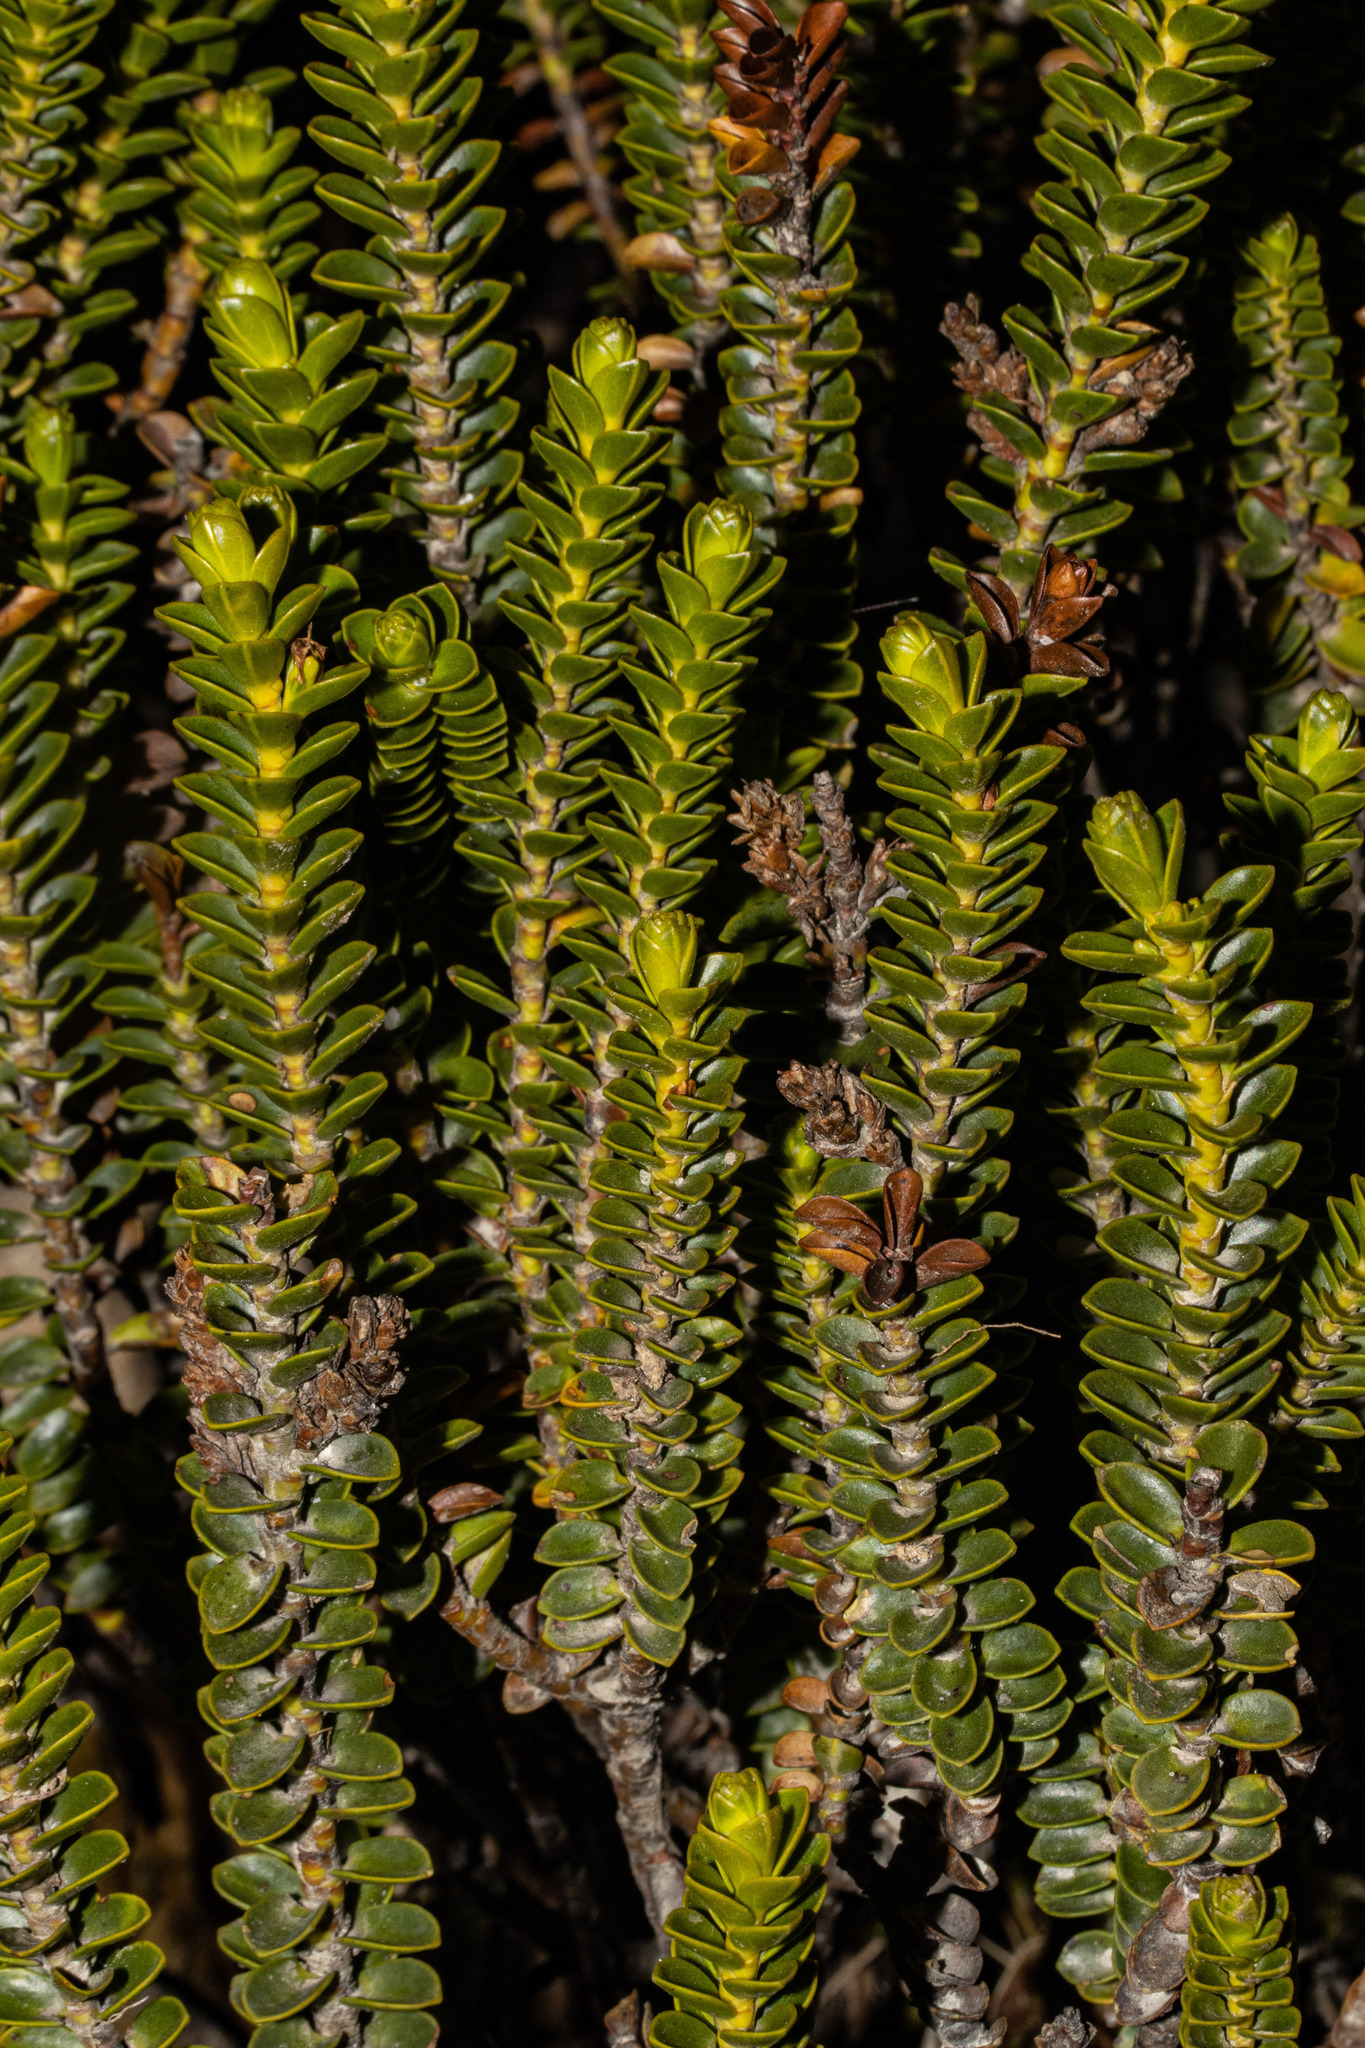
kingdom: Plantae
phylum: Tracheophyta
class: Magnoliopsida
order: Lamiales
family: Plantaginaceae
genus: Veronica
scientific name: Veronica odora
